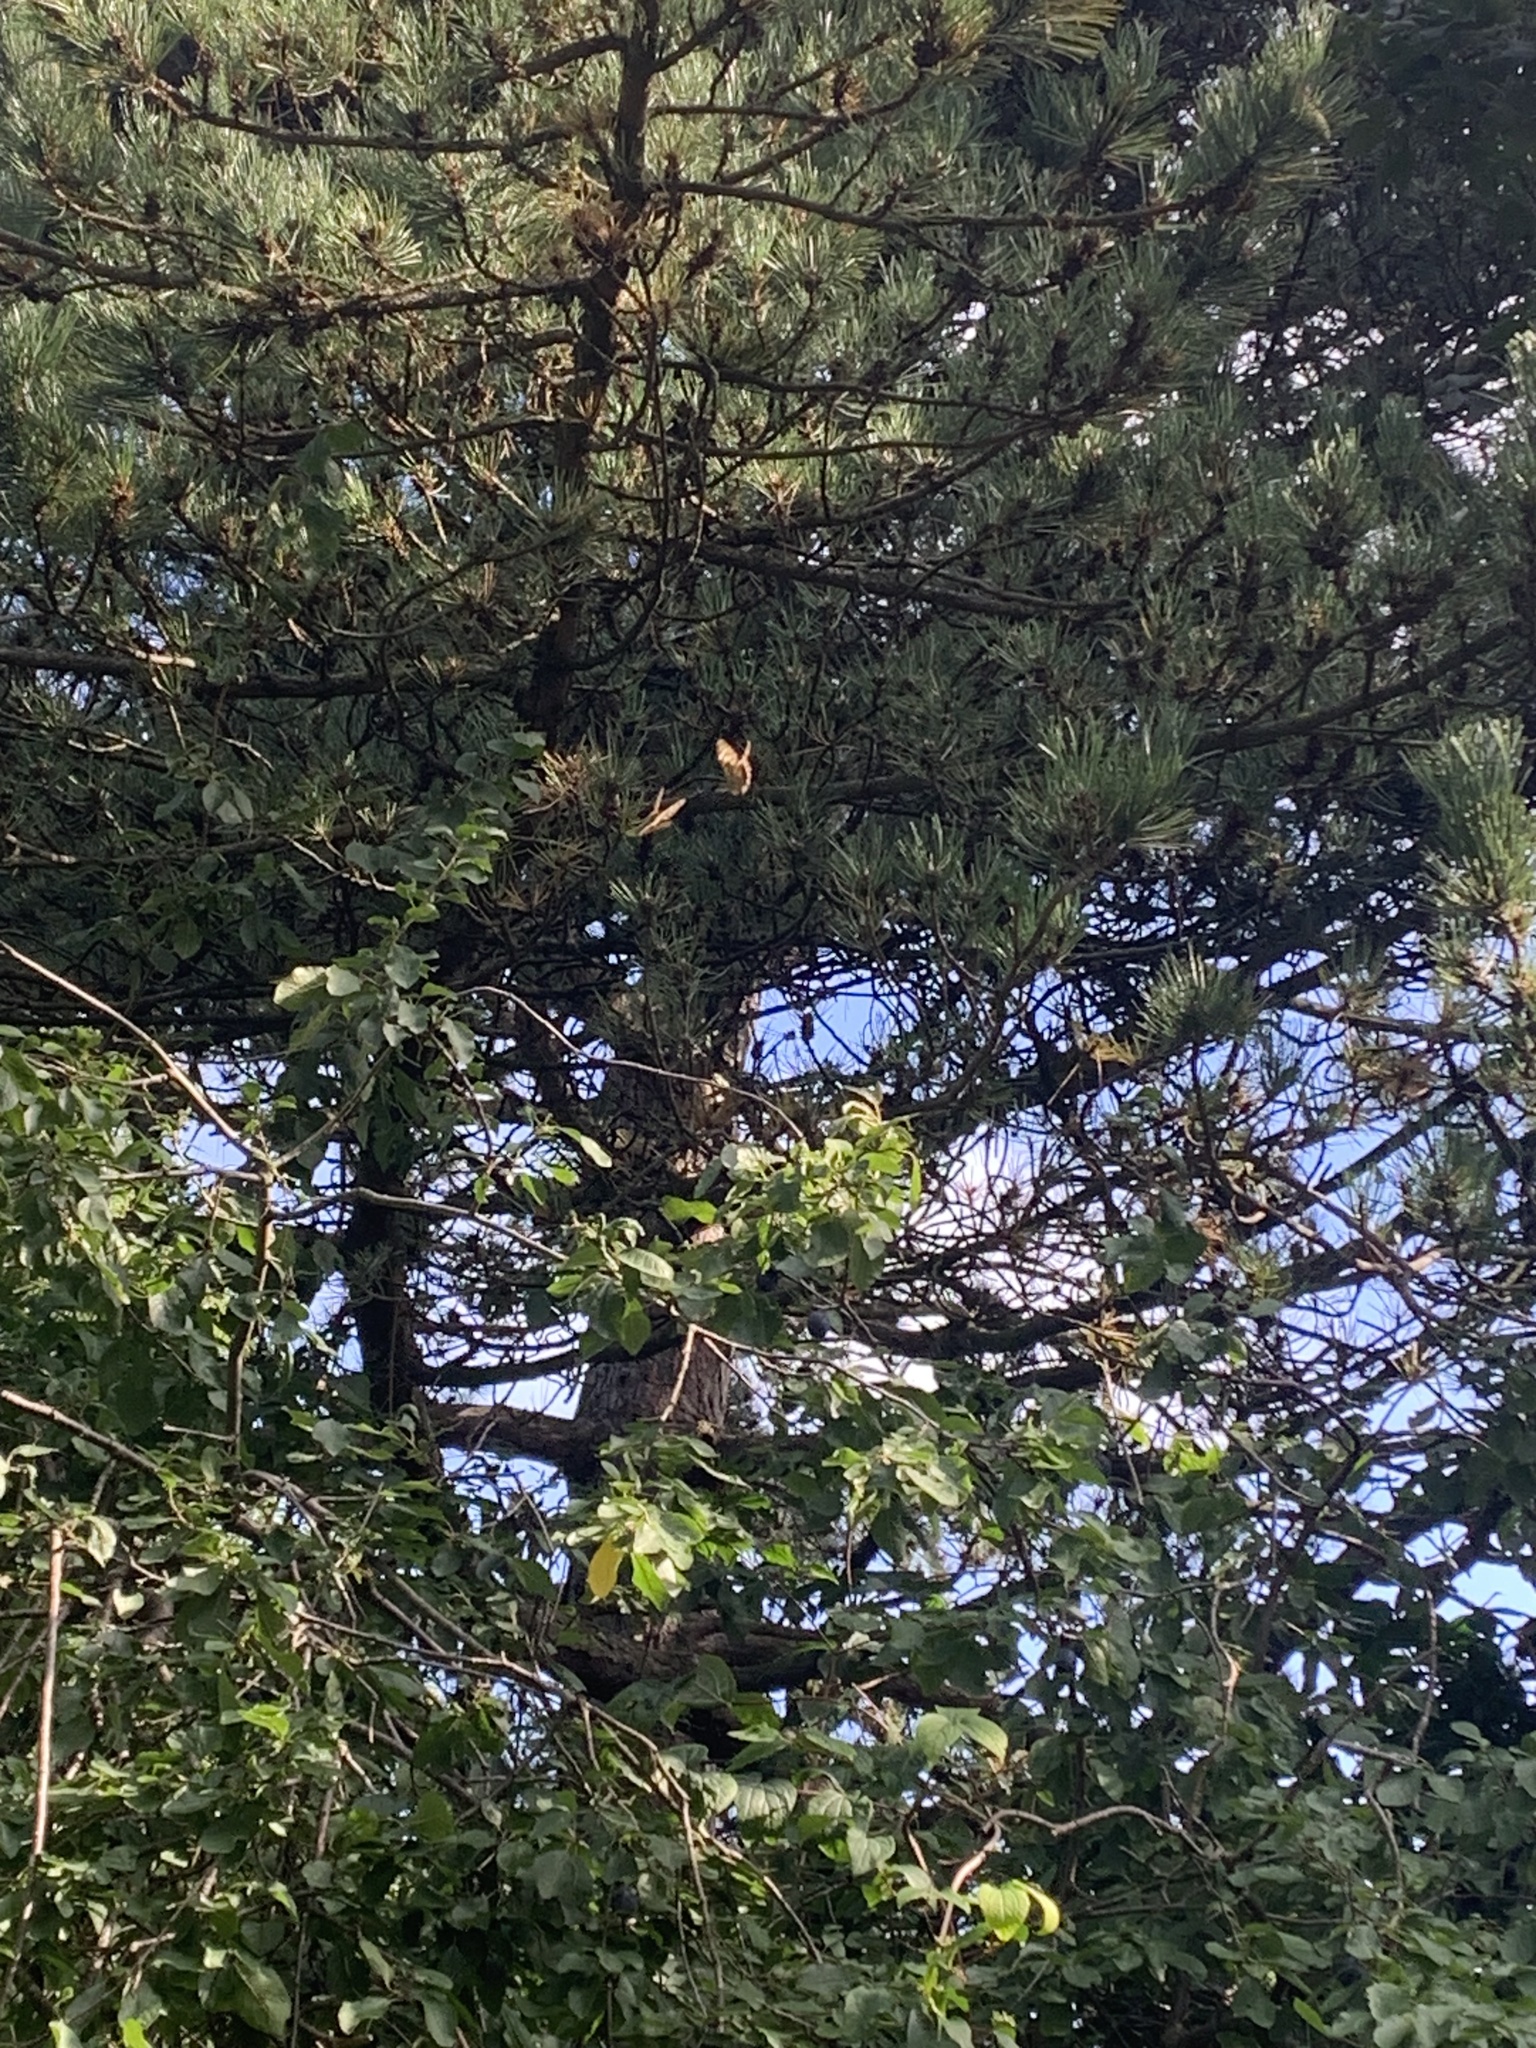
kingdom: Animalia
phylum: Arthropoda
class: Insecta
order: Lepidoptera
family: Nymphalidae
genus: Pararge
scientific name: Pararge aegeria
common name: Speckled wood
